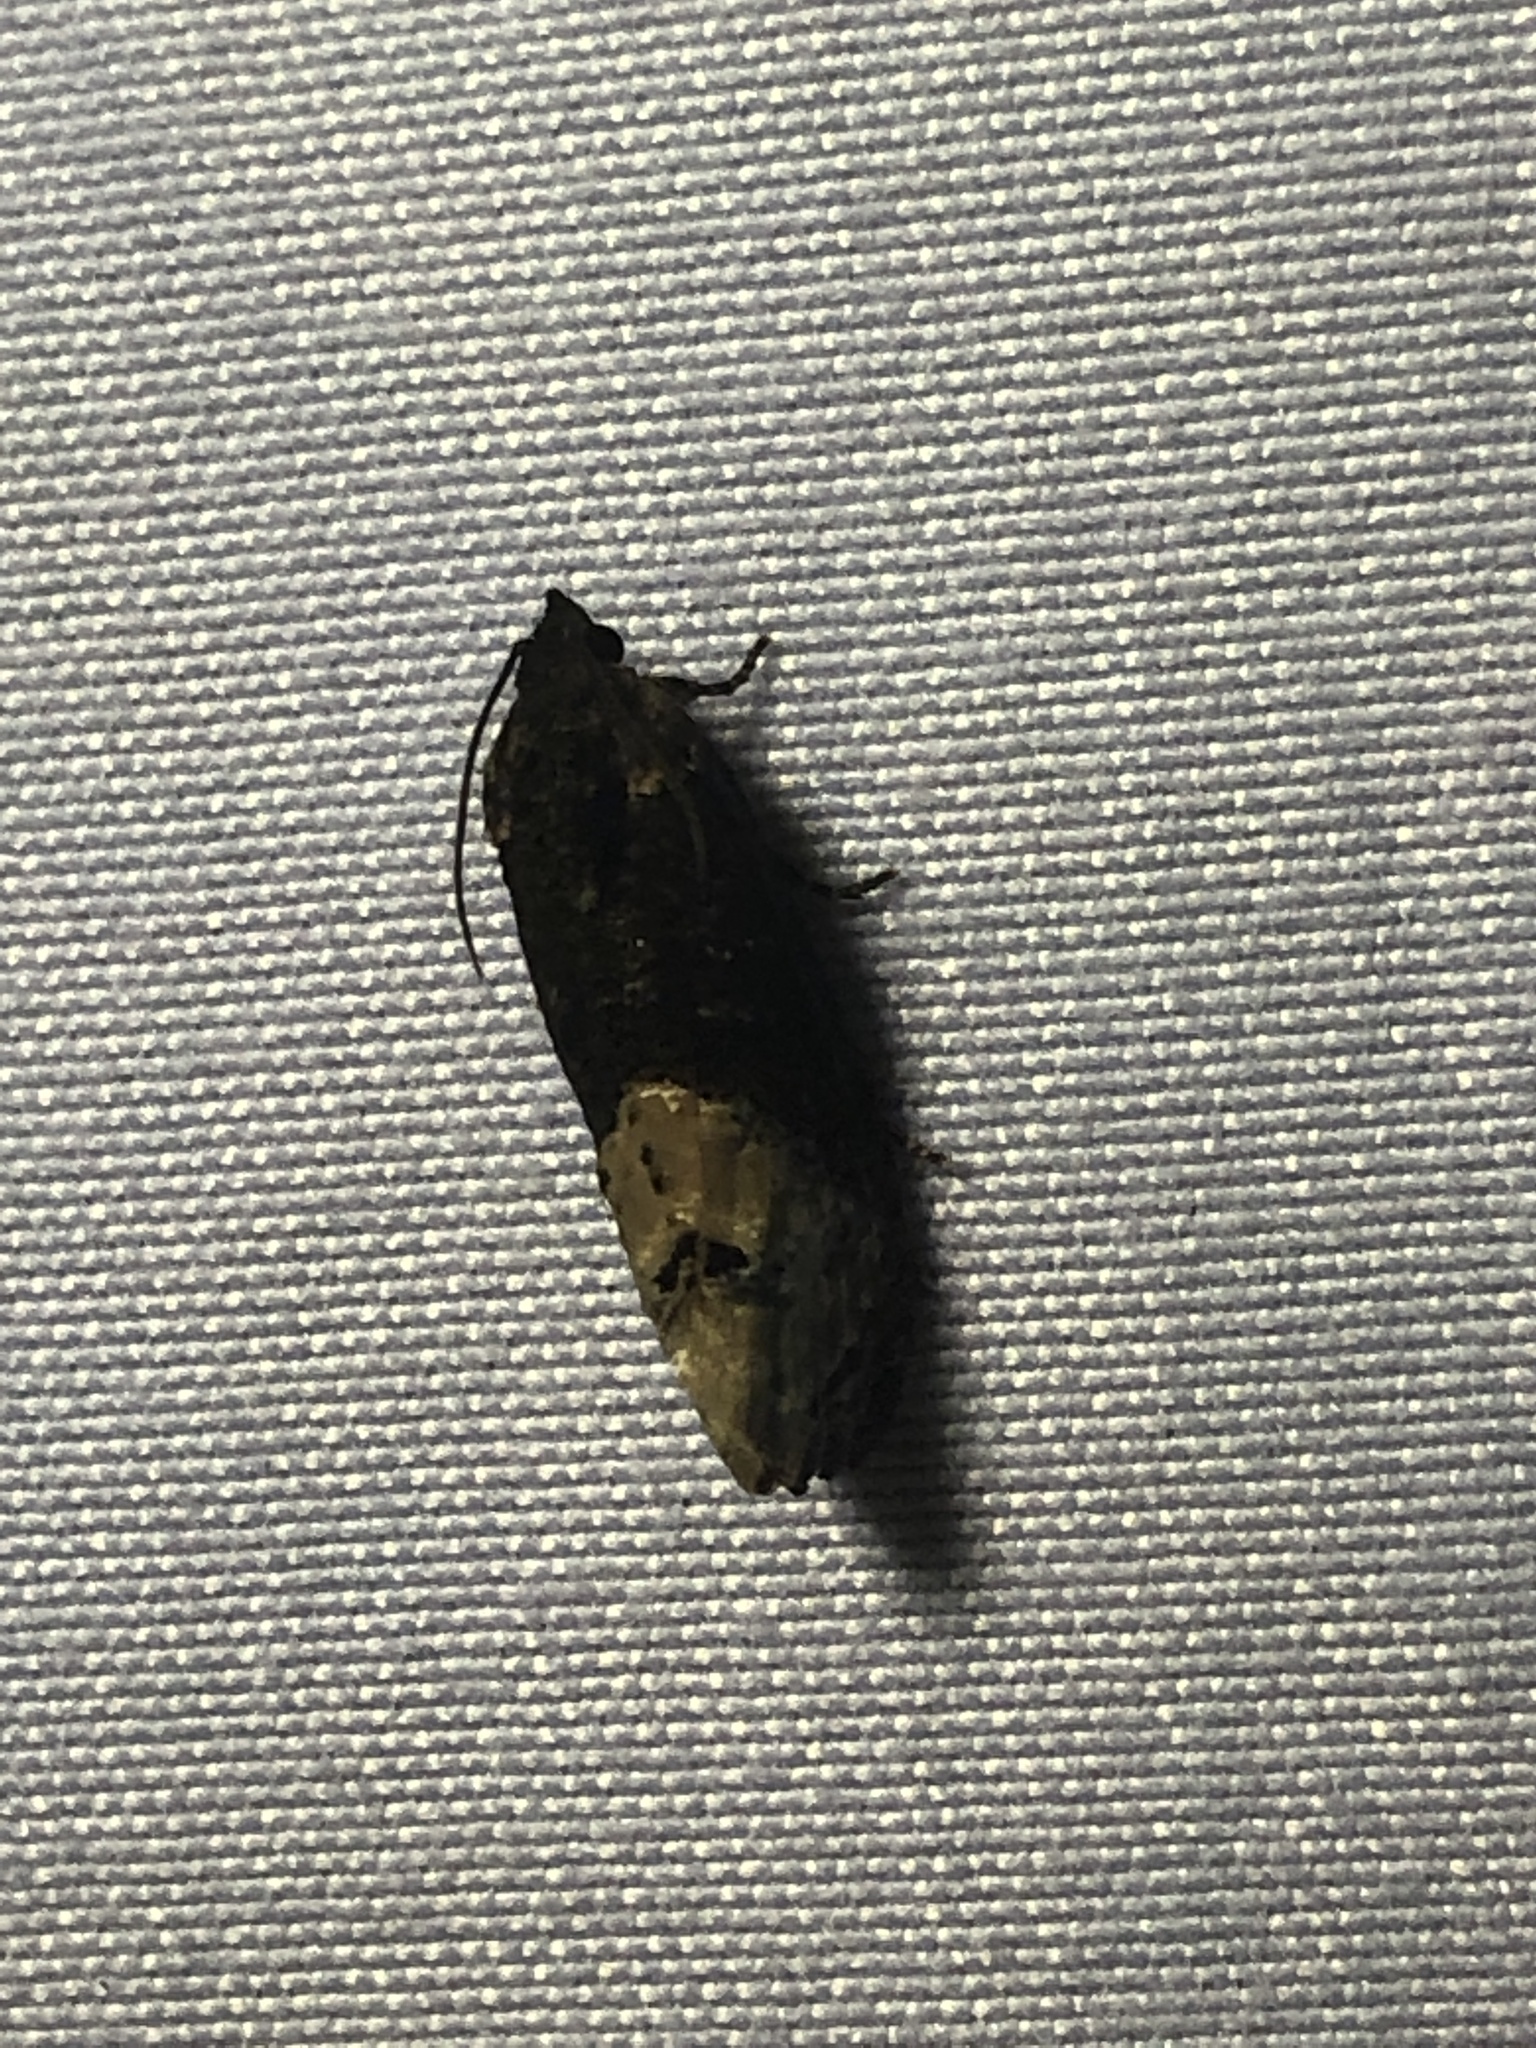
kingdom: Animalia
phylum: Arthropoda
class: Insecta
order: Lepidoptera
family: Tortricidae
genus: Ecdytolopha
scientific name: Ecdytolopha insiticiana
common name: Locust twig borer moth
